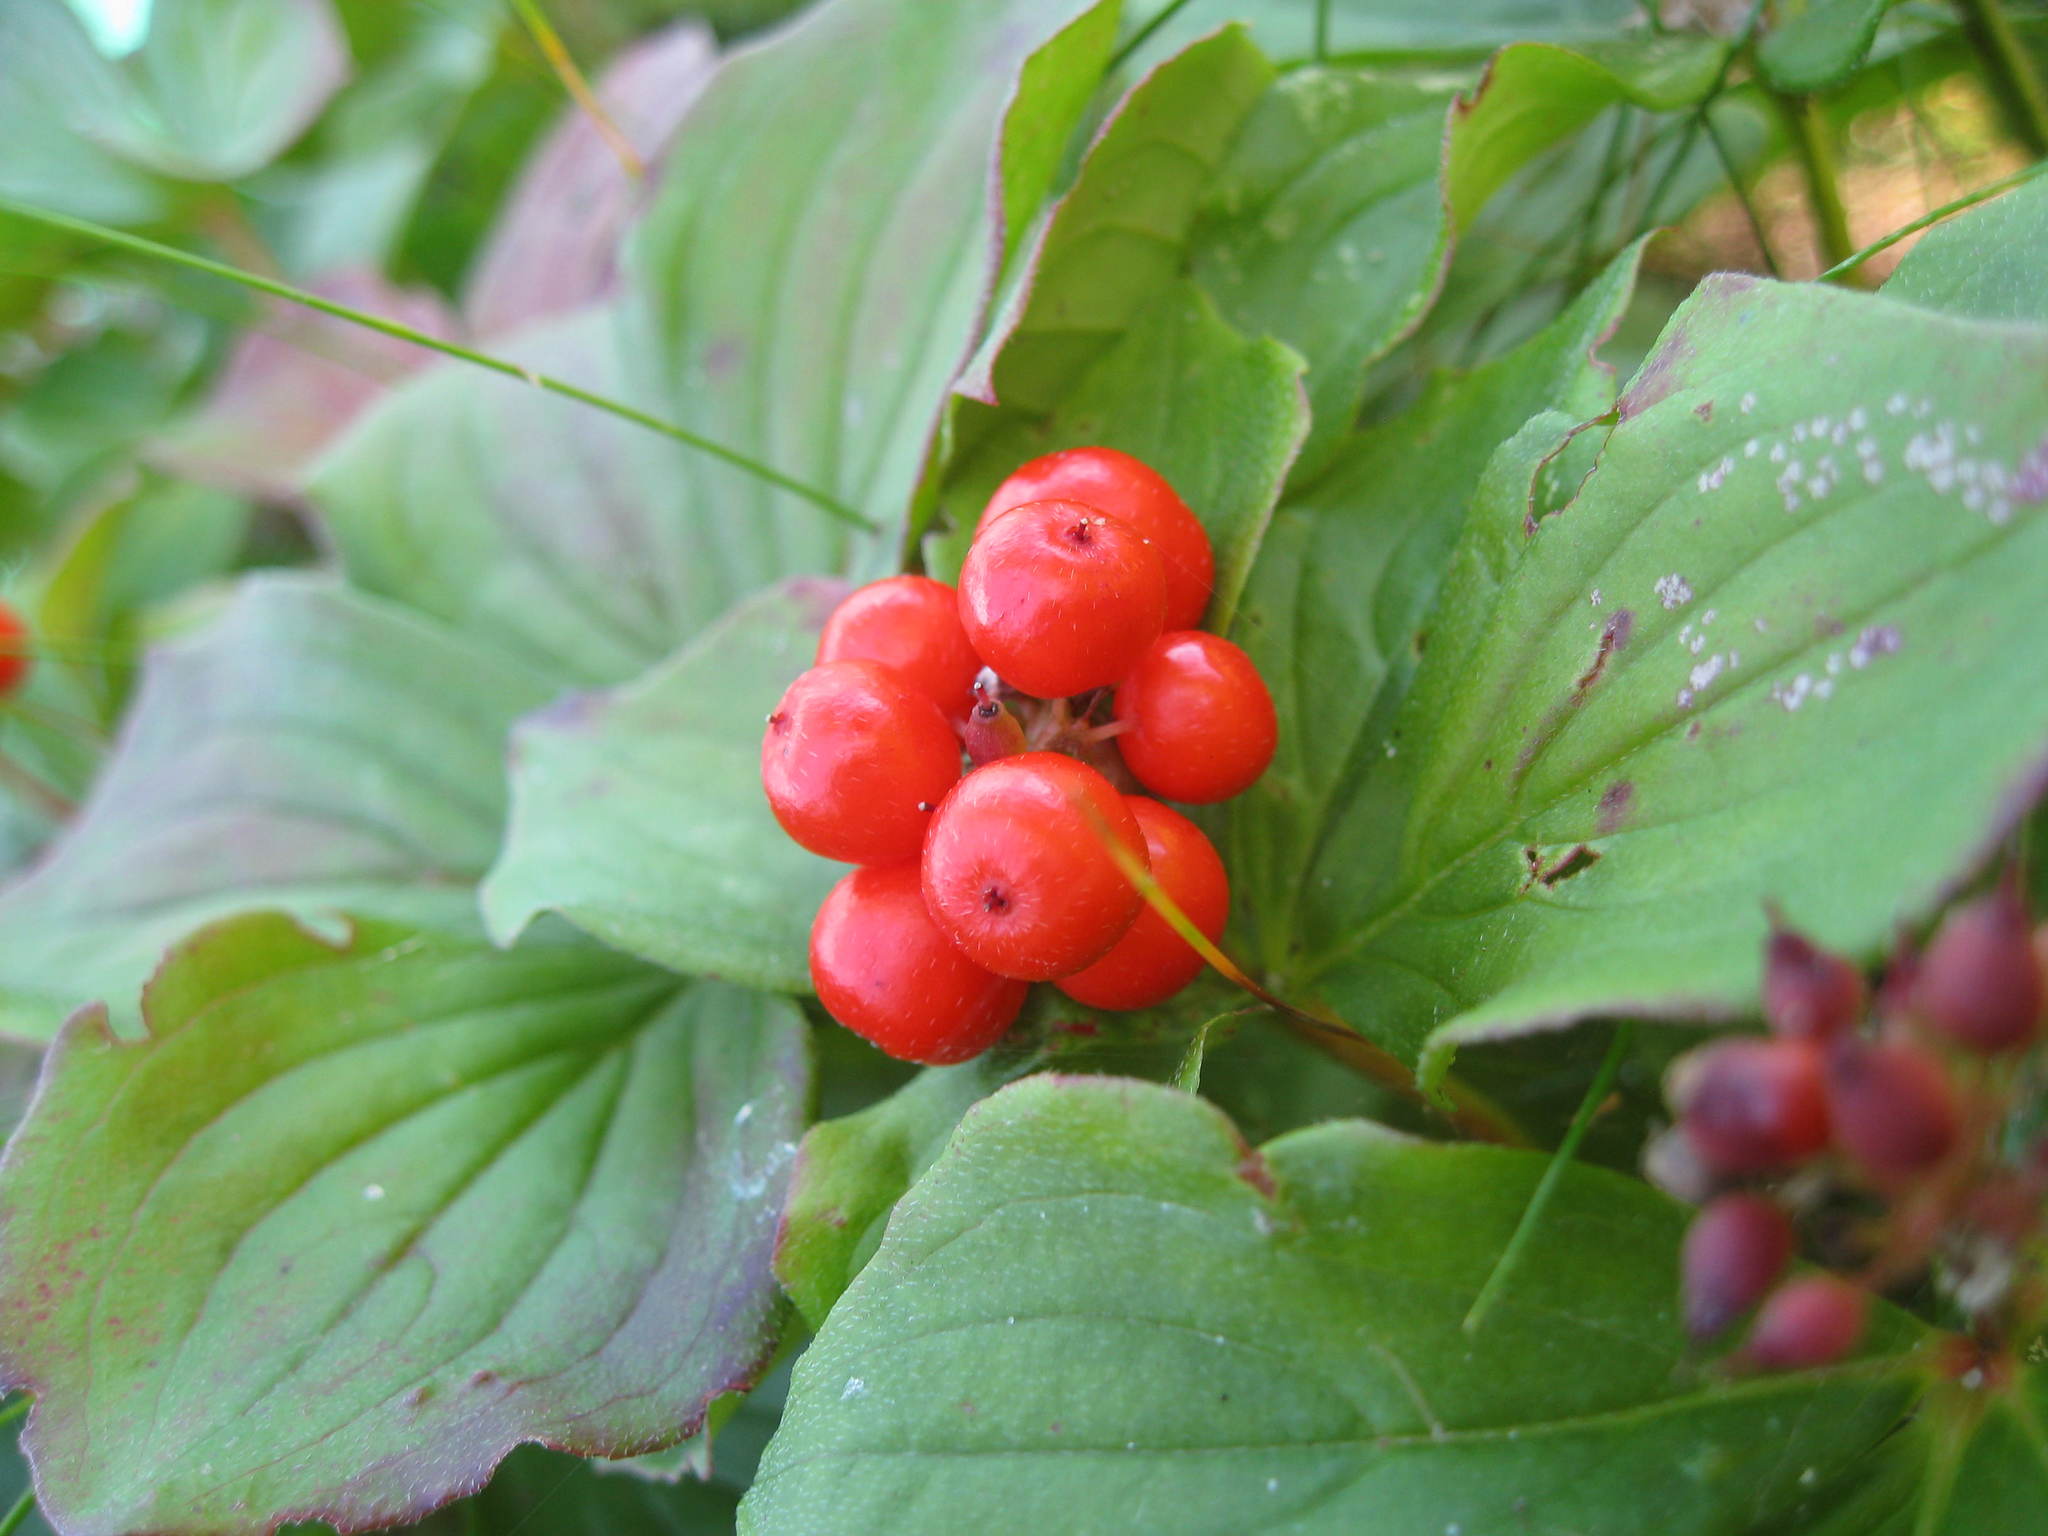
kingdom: Plantae
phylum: Tracheophyta
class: Magnoliopsida
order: Cornales
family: Cornaceae
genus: Cornus
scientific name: Cornus canadensis
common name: Creeping dogwood
